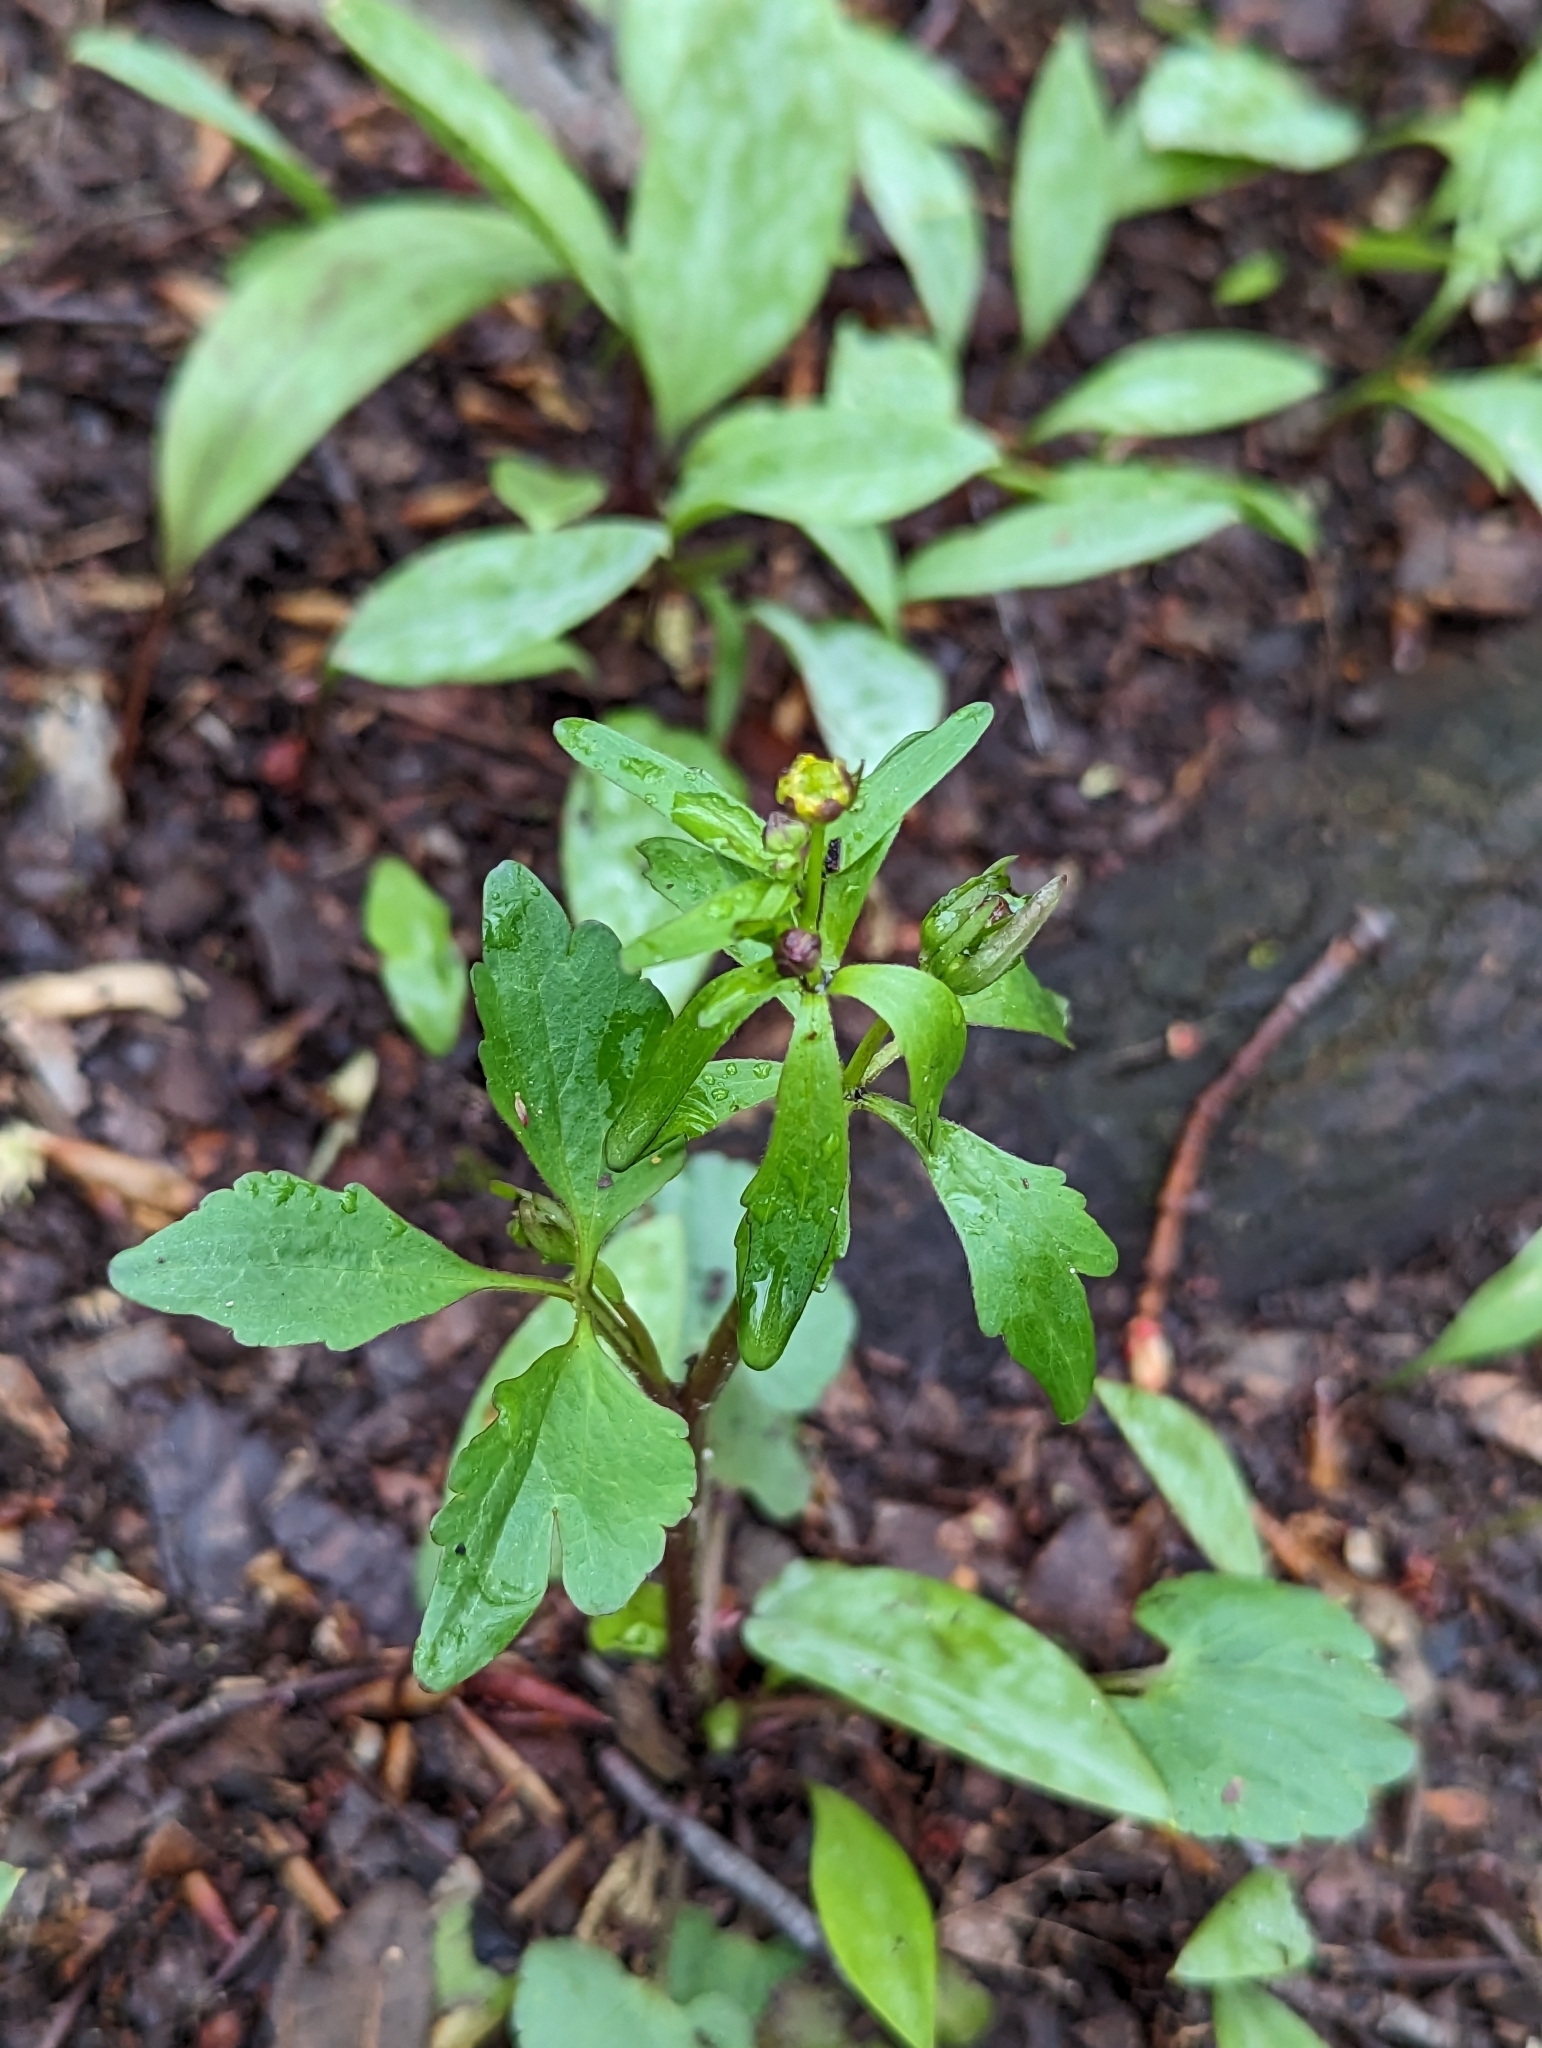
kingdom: Plantae
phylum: Tracheophyta
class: Magnoliopsida
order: Ranunculales
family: Ranunculaceae
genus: Ranunculus
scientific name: Ranunculus abortivus
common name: Early wood buttercup
